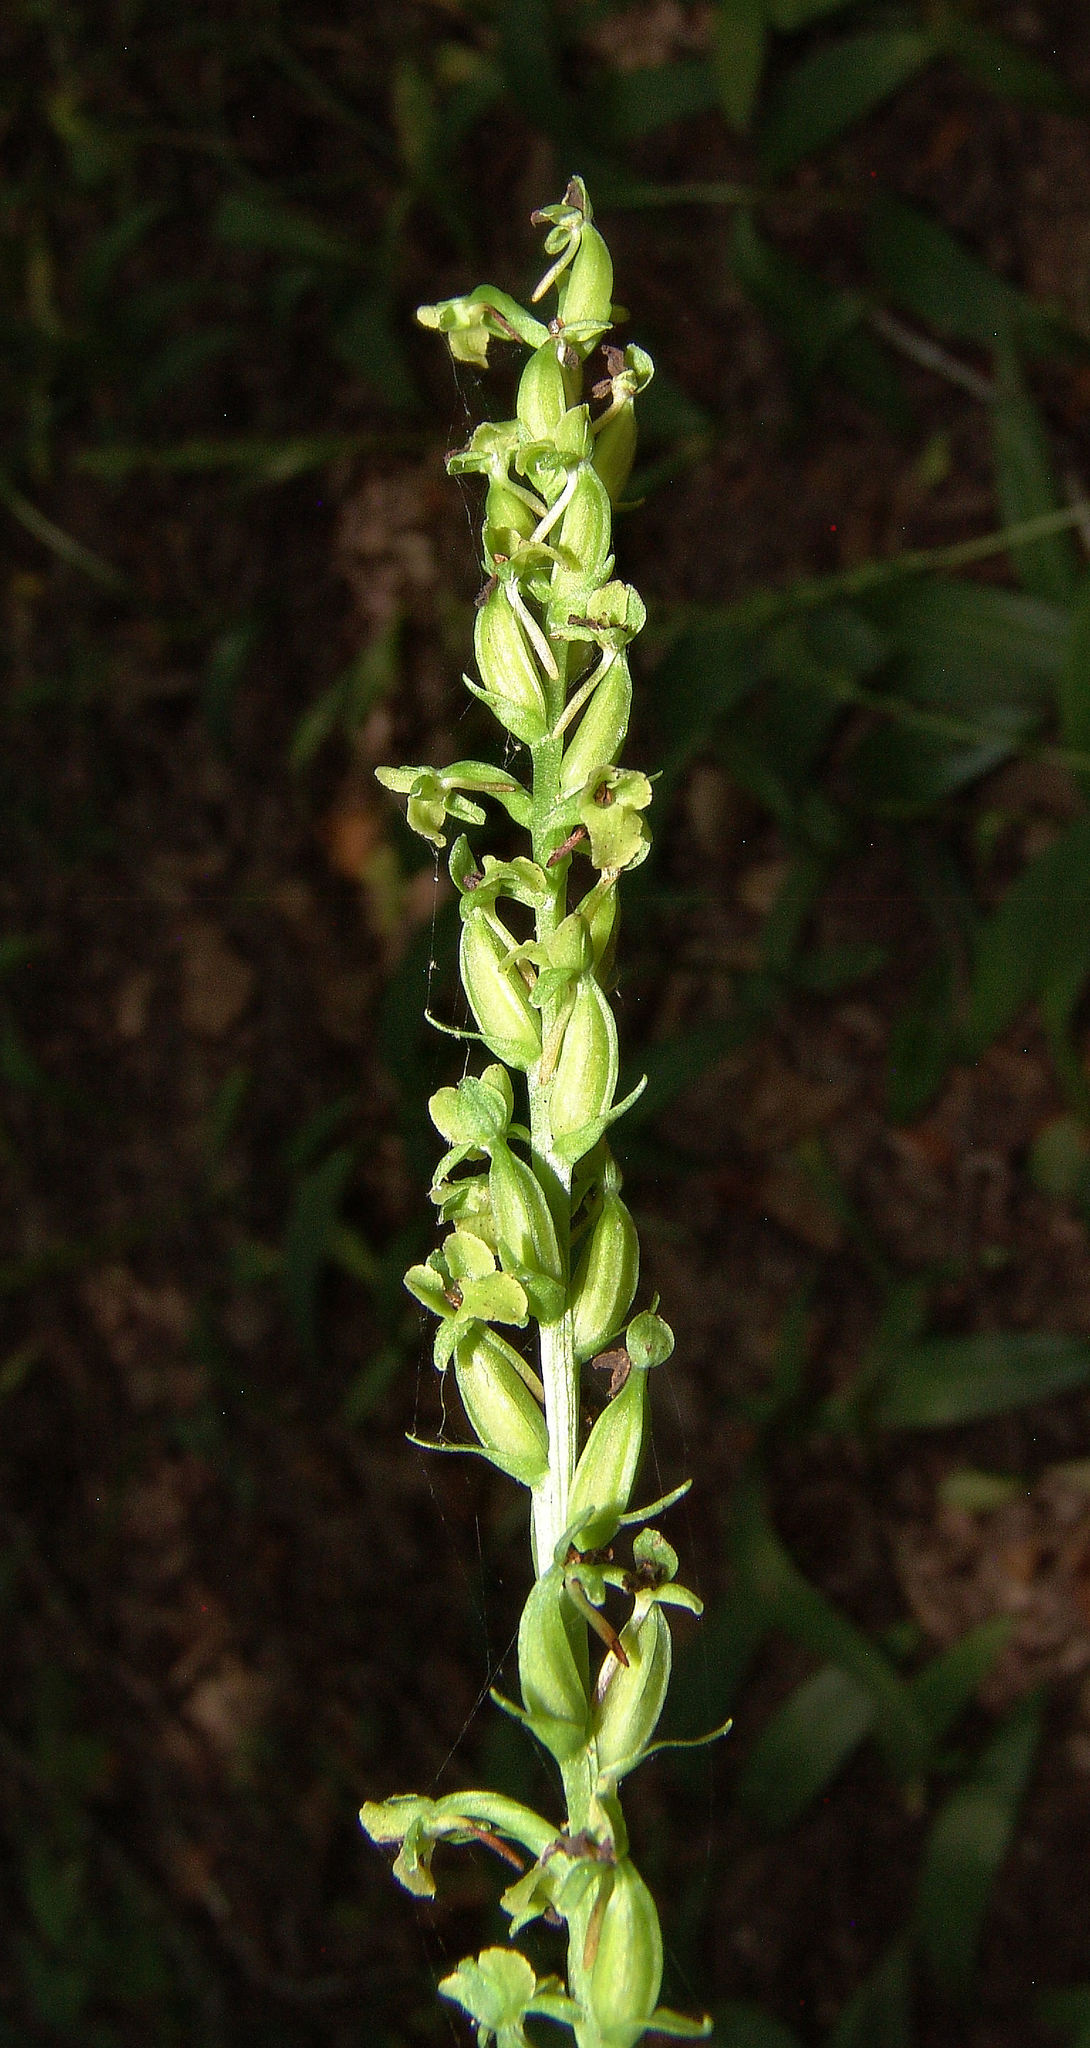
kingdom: Plantae
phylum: Tracheophyta
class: Liliopsida
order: Asparagales
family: Orchidaceae
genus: Platanthera
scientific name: Platanthera flava
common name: Gypsy-spikes
